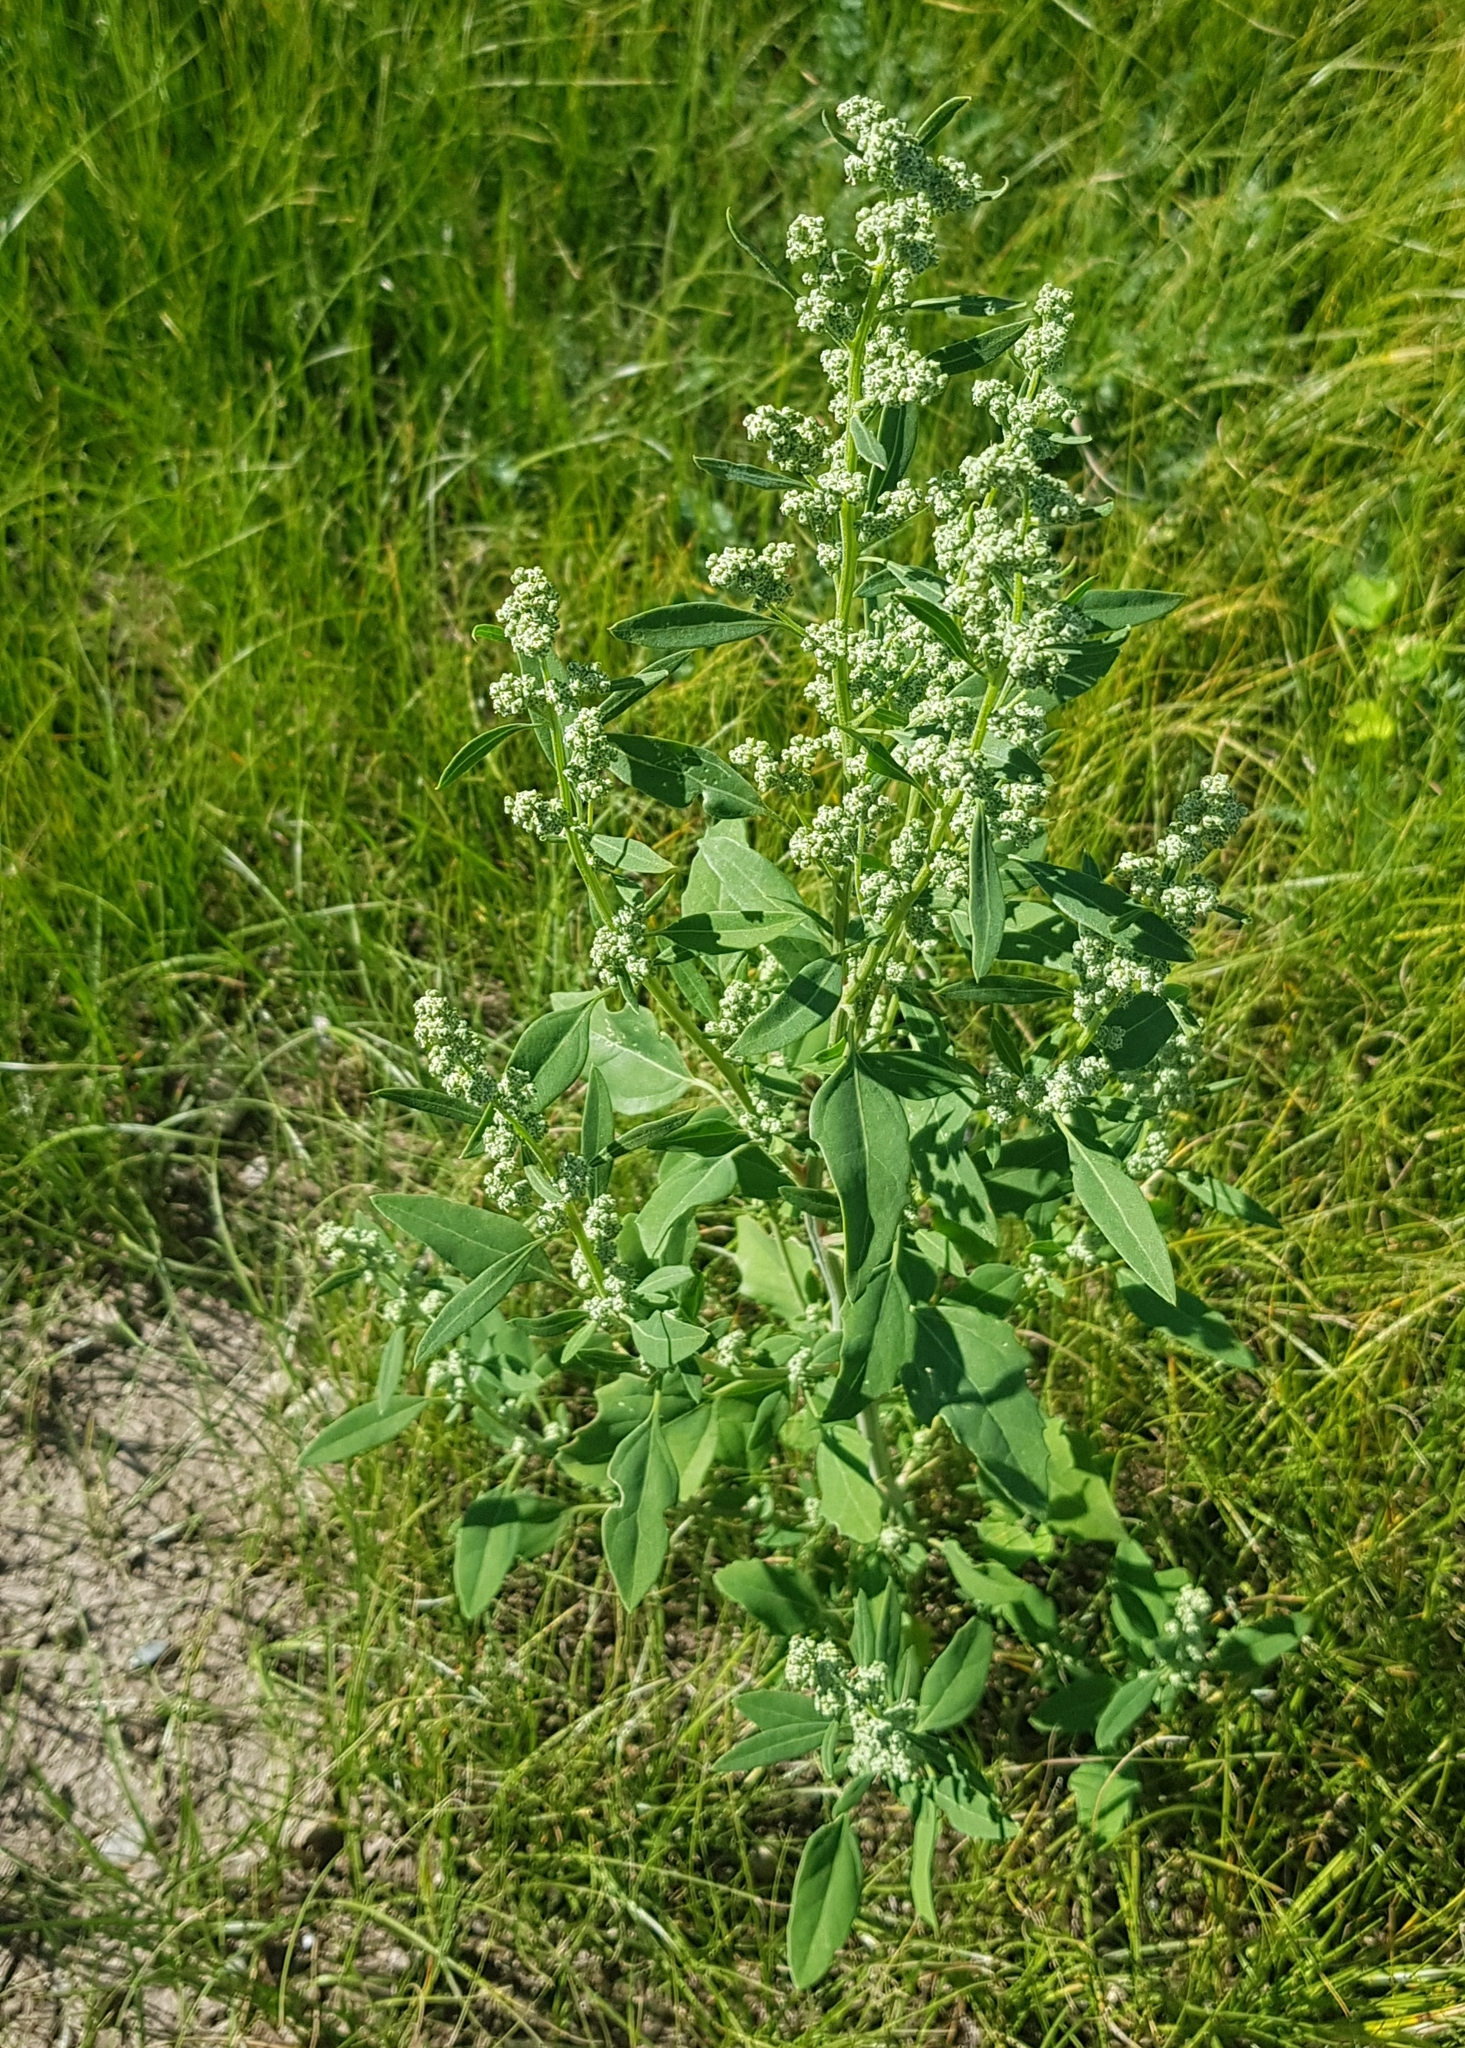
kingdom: Plantae
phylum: Tracheophyta
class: Magnoliopsida
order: Caryophyllales
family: Amaranthaceae
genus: Chenopodium
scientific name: Chenopodium album
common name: Fat-hen
